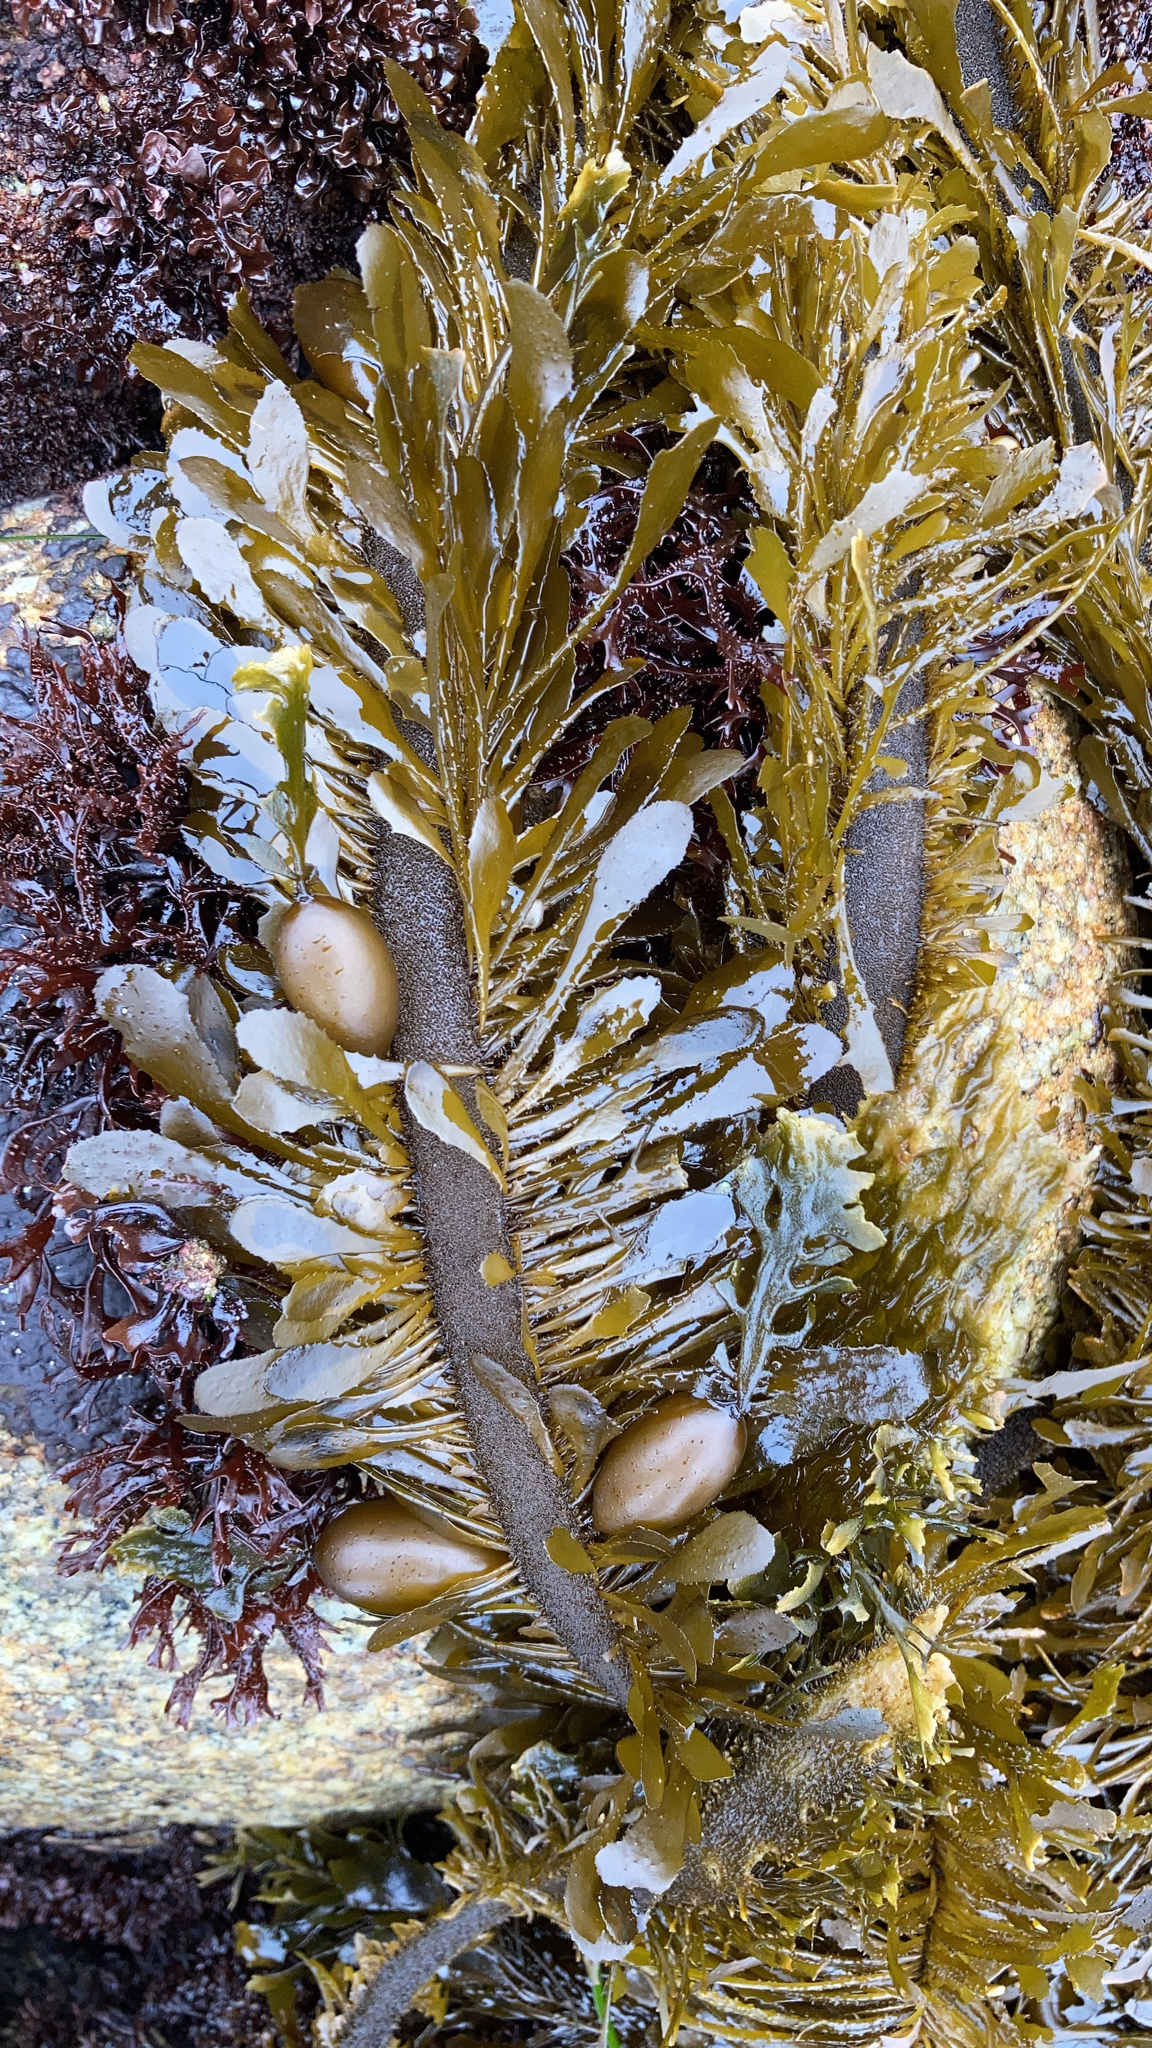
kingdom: Chromista
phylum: Ochrophyta
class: Phaeophyceae
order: Laminariales
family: Lessoniaceae
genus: Egregia
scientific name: Egregia menziesii
